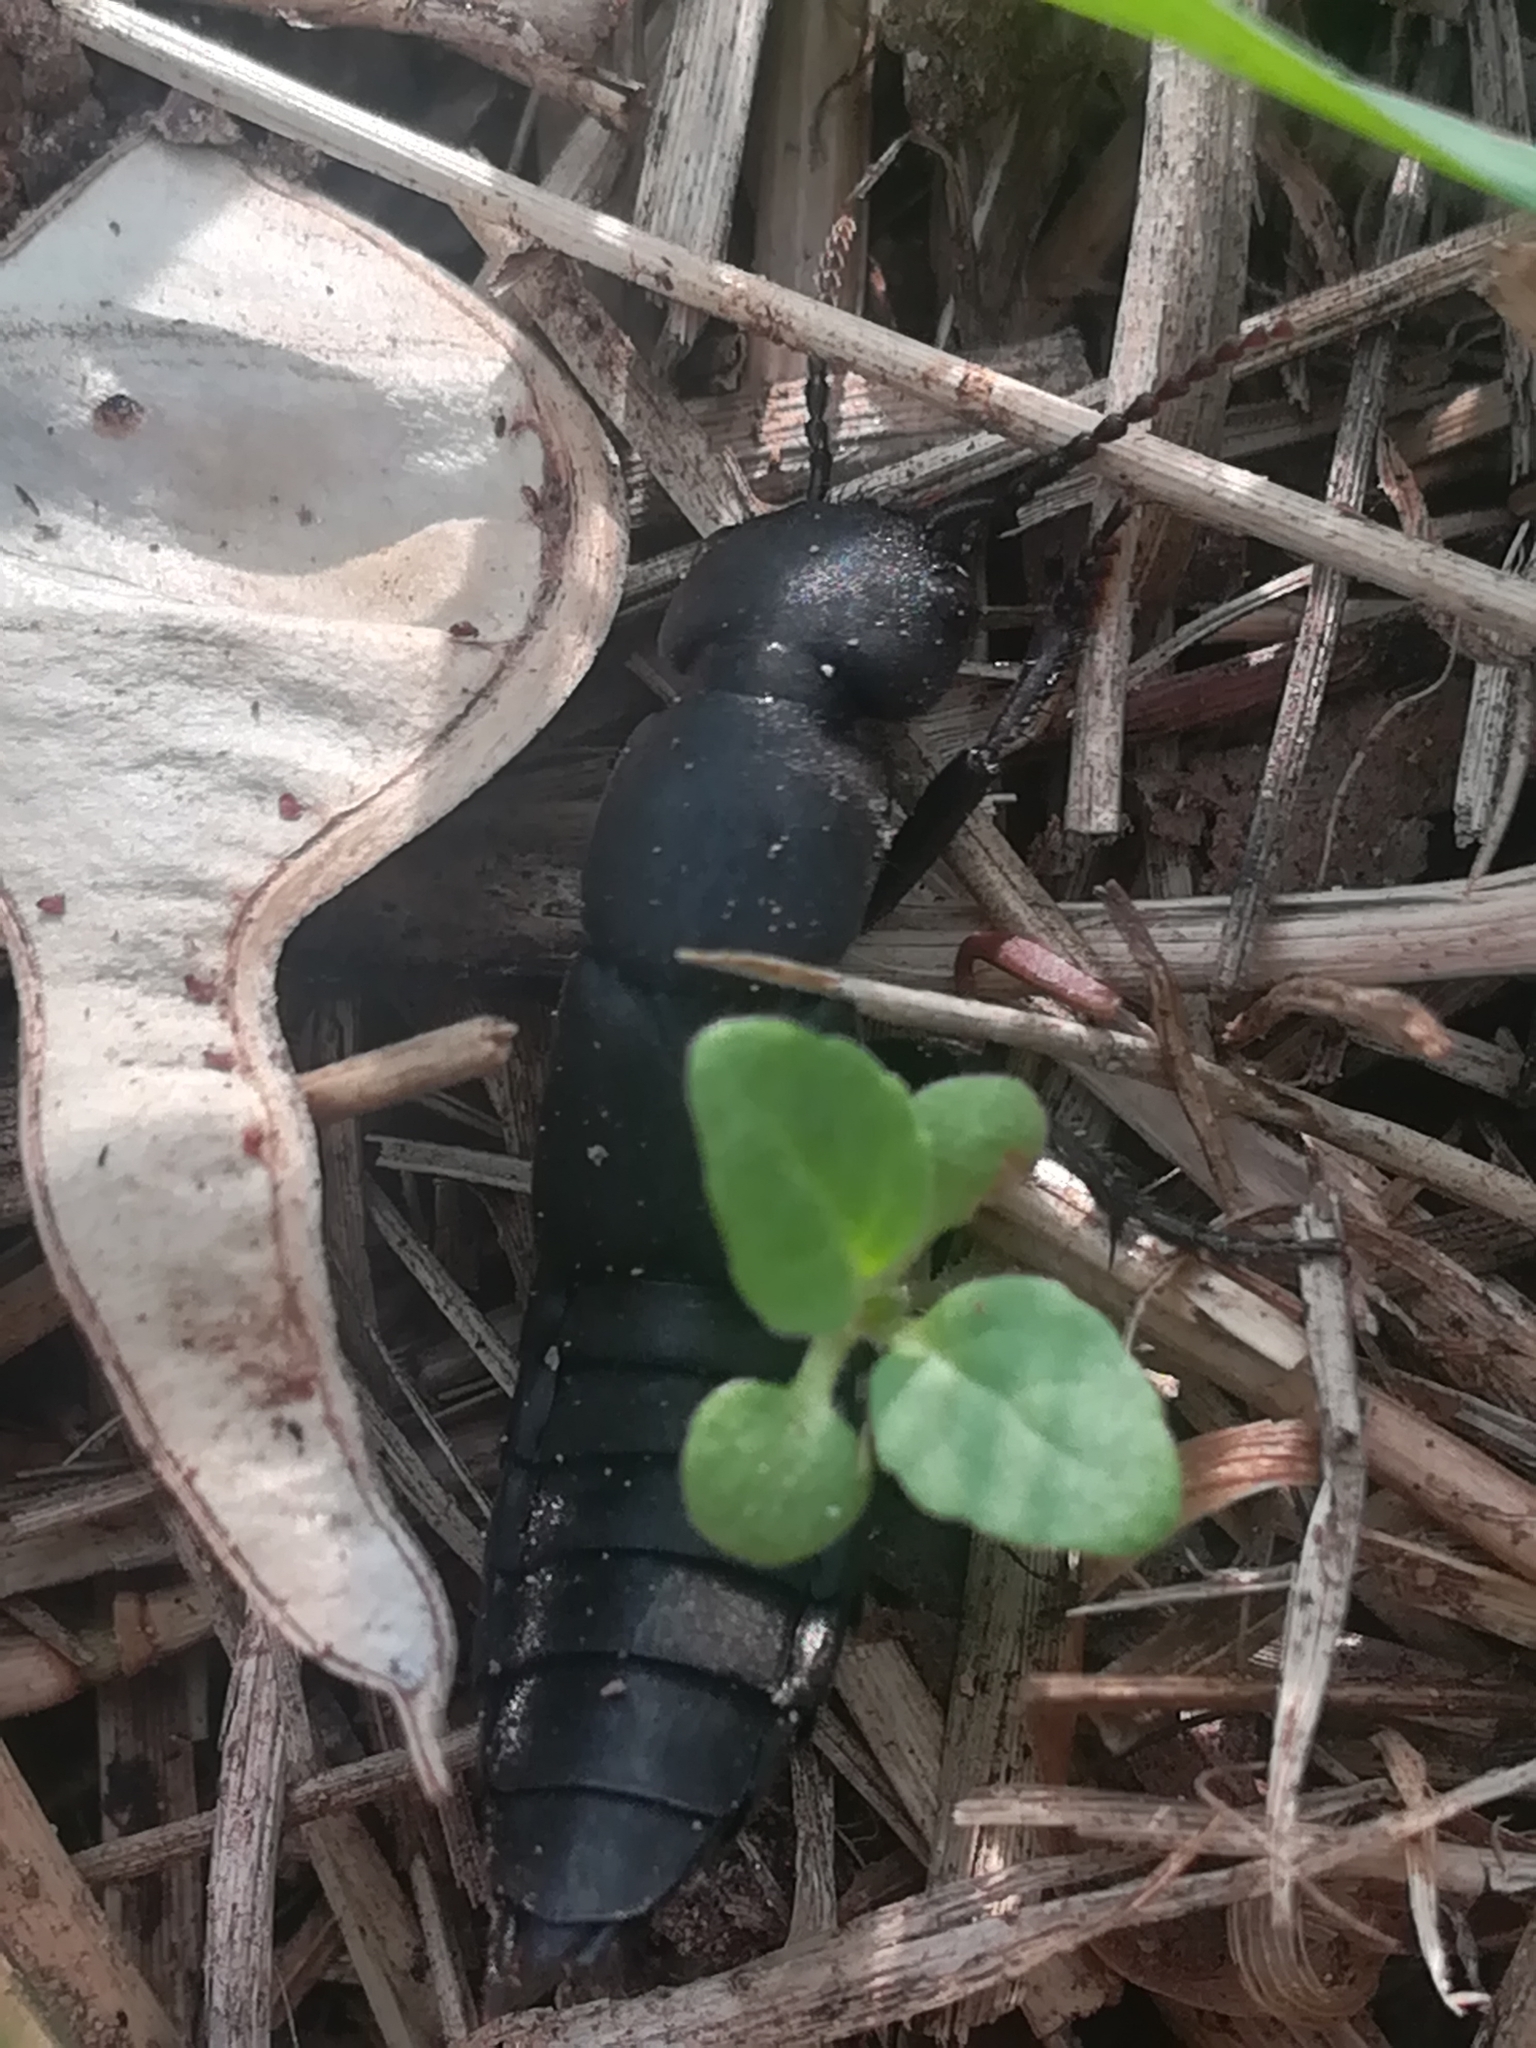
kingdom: Animalia
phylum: Arthropoda
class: Insecta
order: Coleoptera
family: Staphylinidae
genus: Ocypus
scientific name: Ocypus olens
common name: Devil's coach-horse
